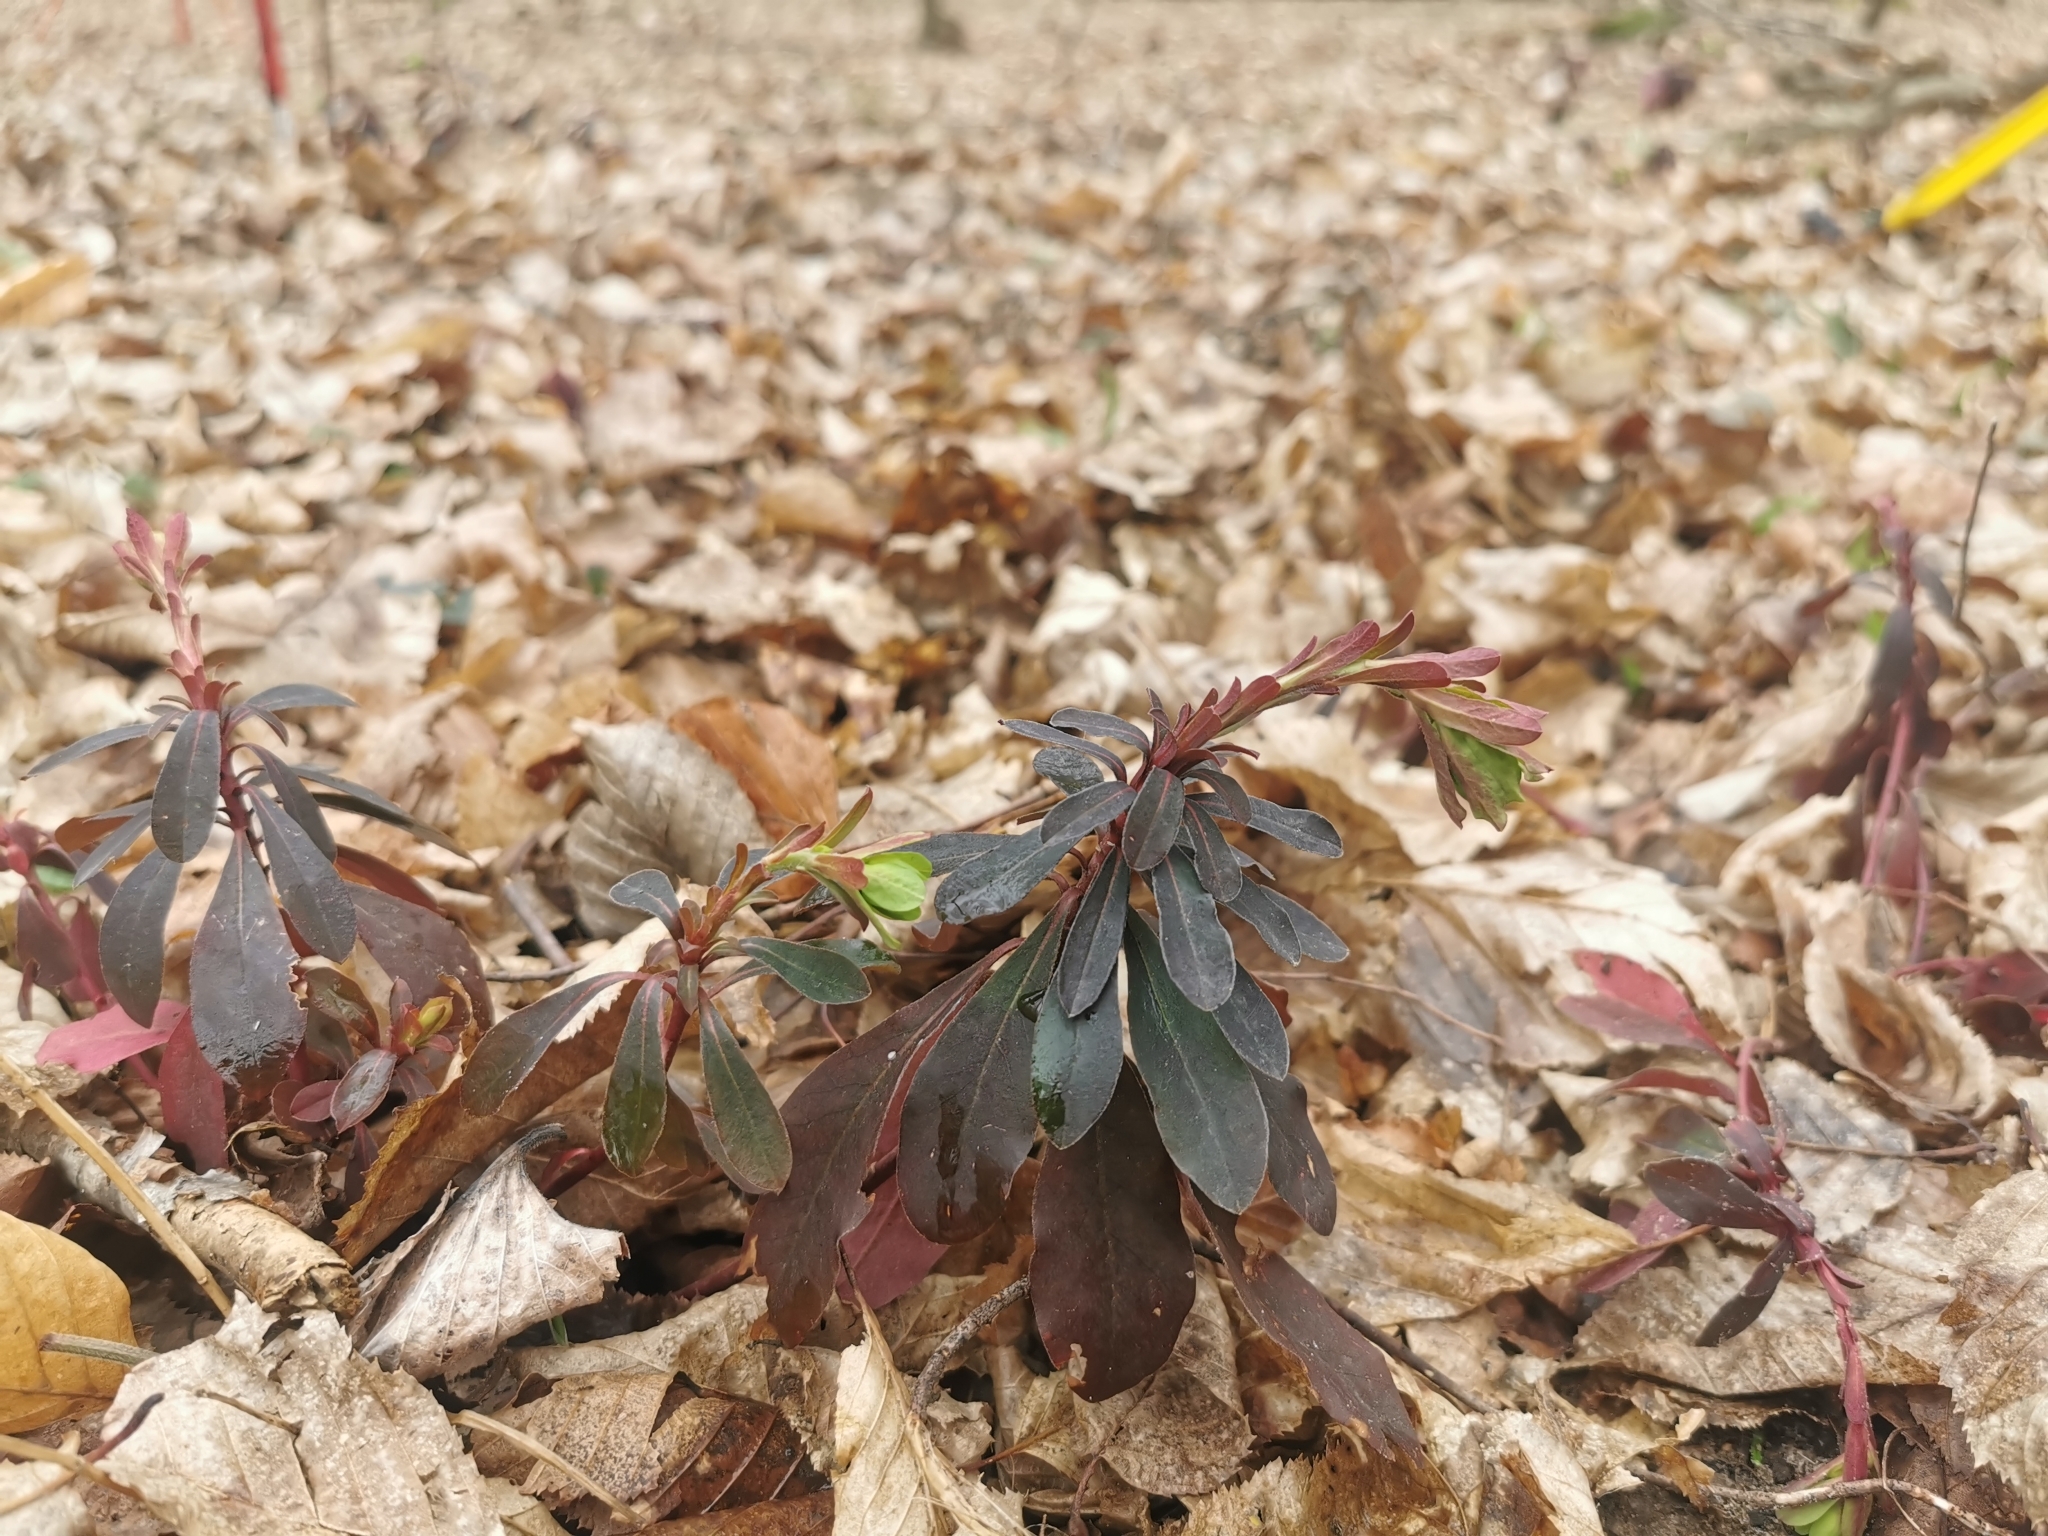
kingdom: Plantae
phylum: Tracheophyta
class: Magnoliopsida
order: Malpighiales
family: Euphorbiaceae
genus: Euphorbia
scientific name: Euphorbia amygdaloides
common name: Wood spurge
